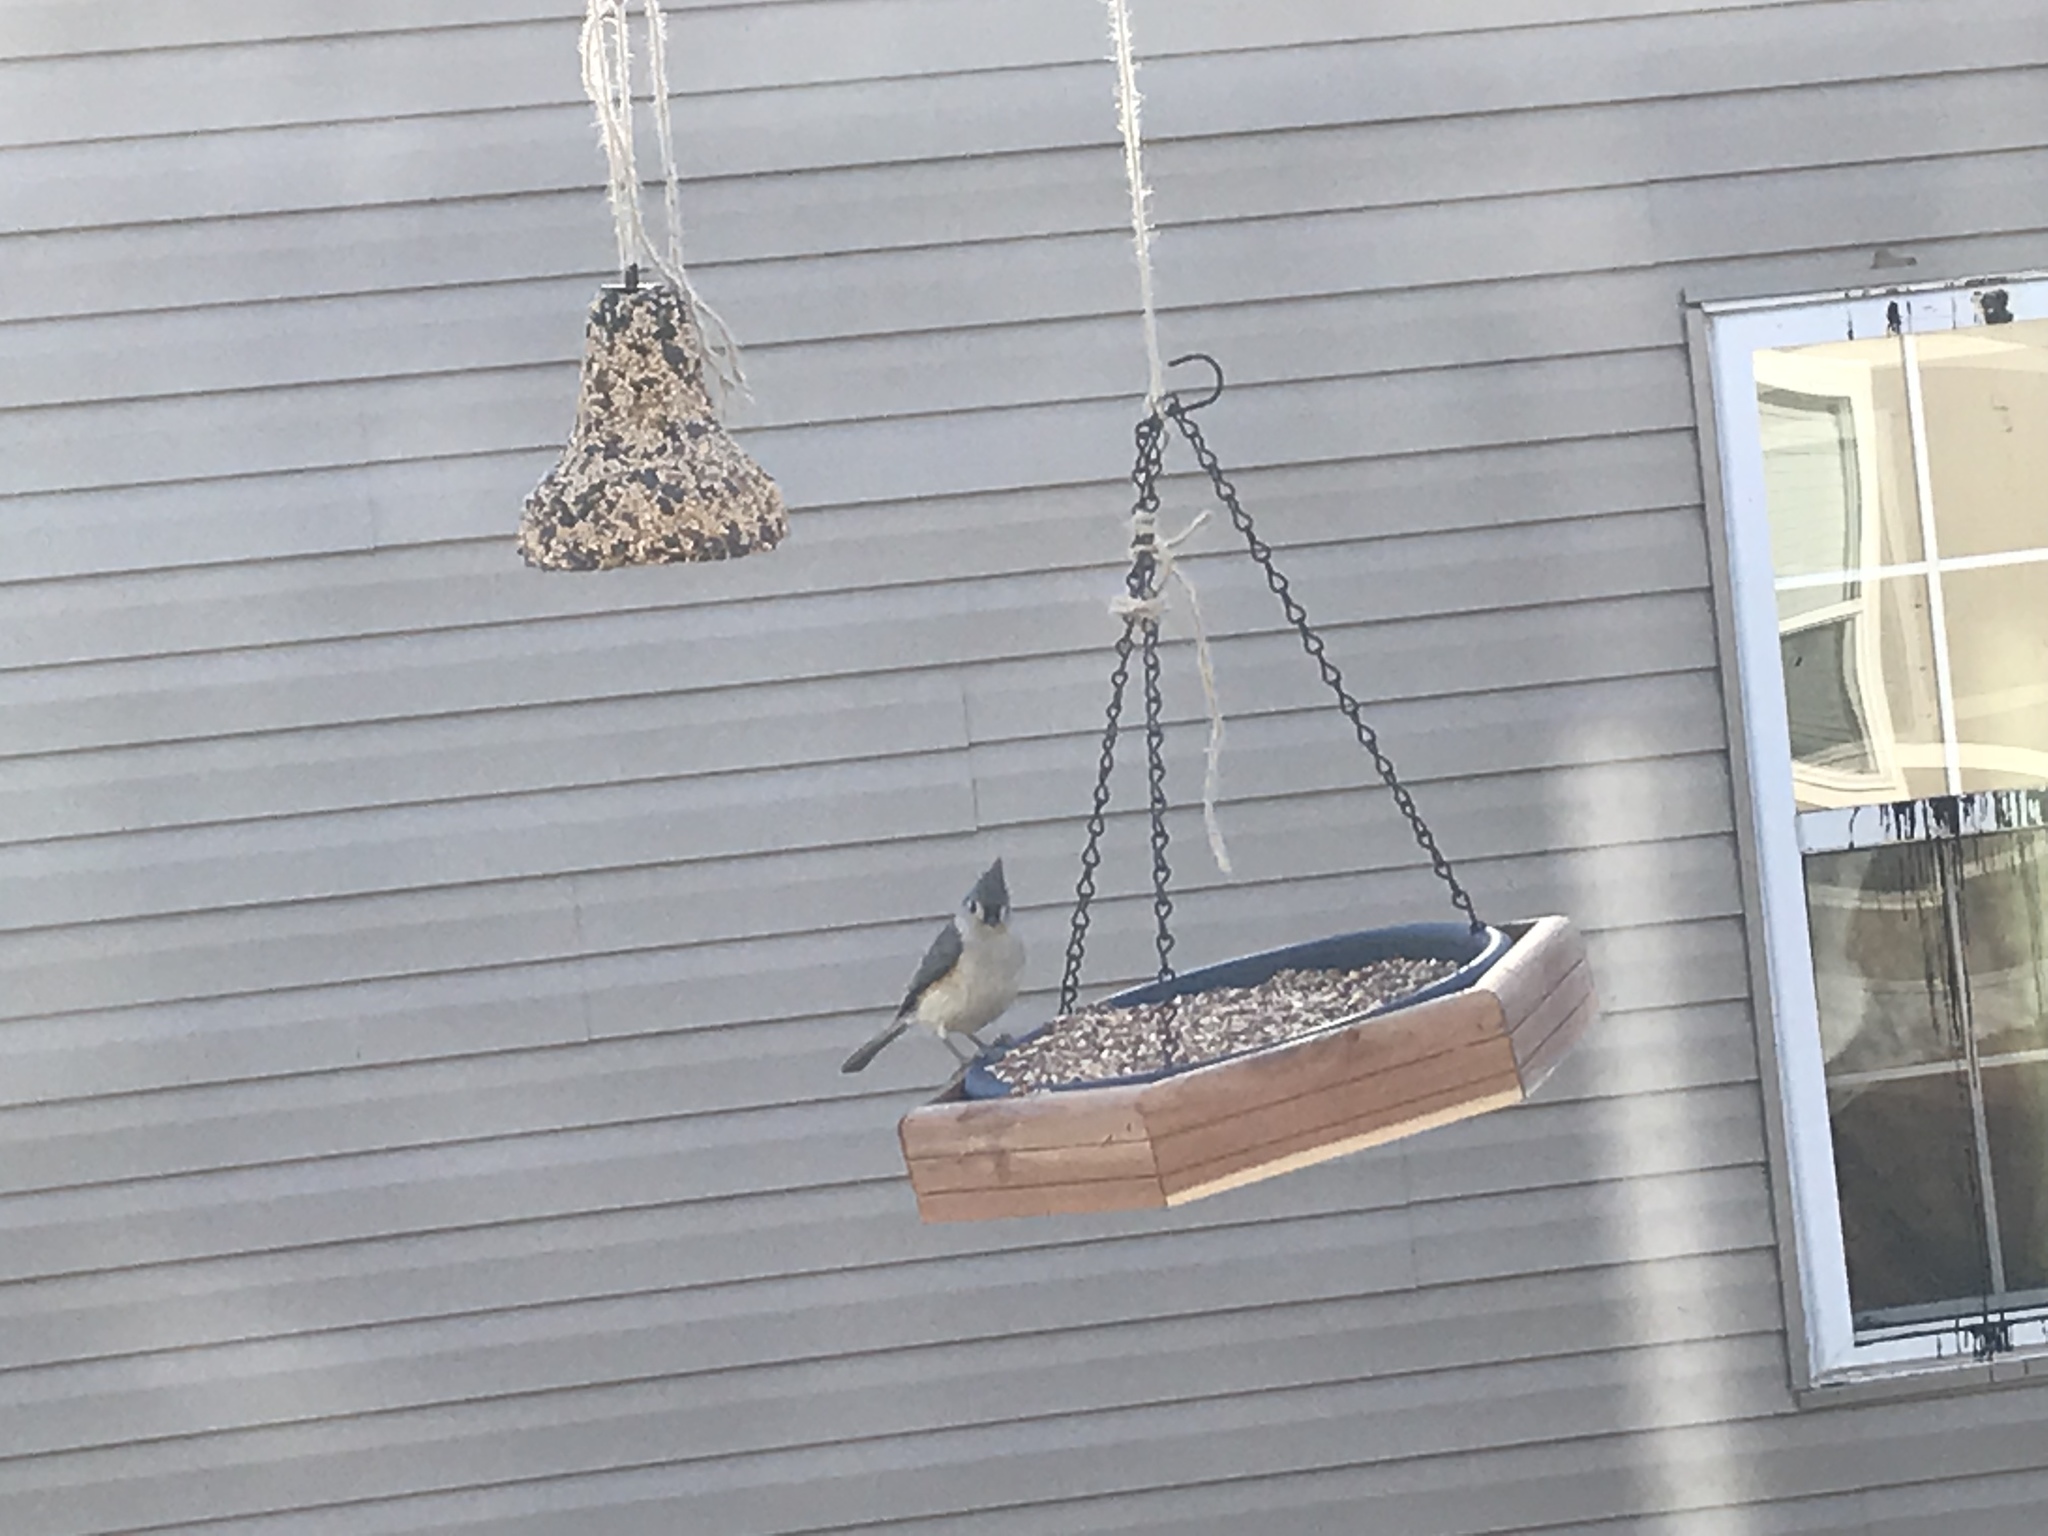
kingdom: Animalia
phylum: Chordata
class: Aves
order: Passeriformes
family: Paridae
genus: Baeolophus
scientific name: Baeolophus bicolor
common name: Tufted titmouse
